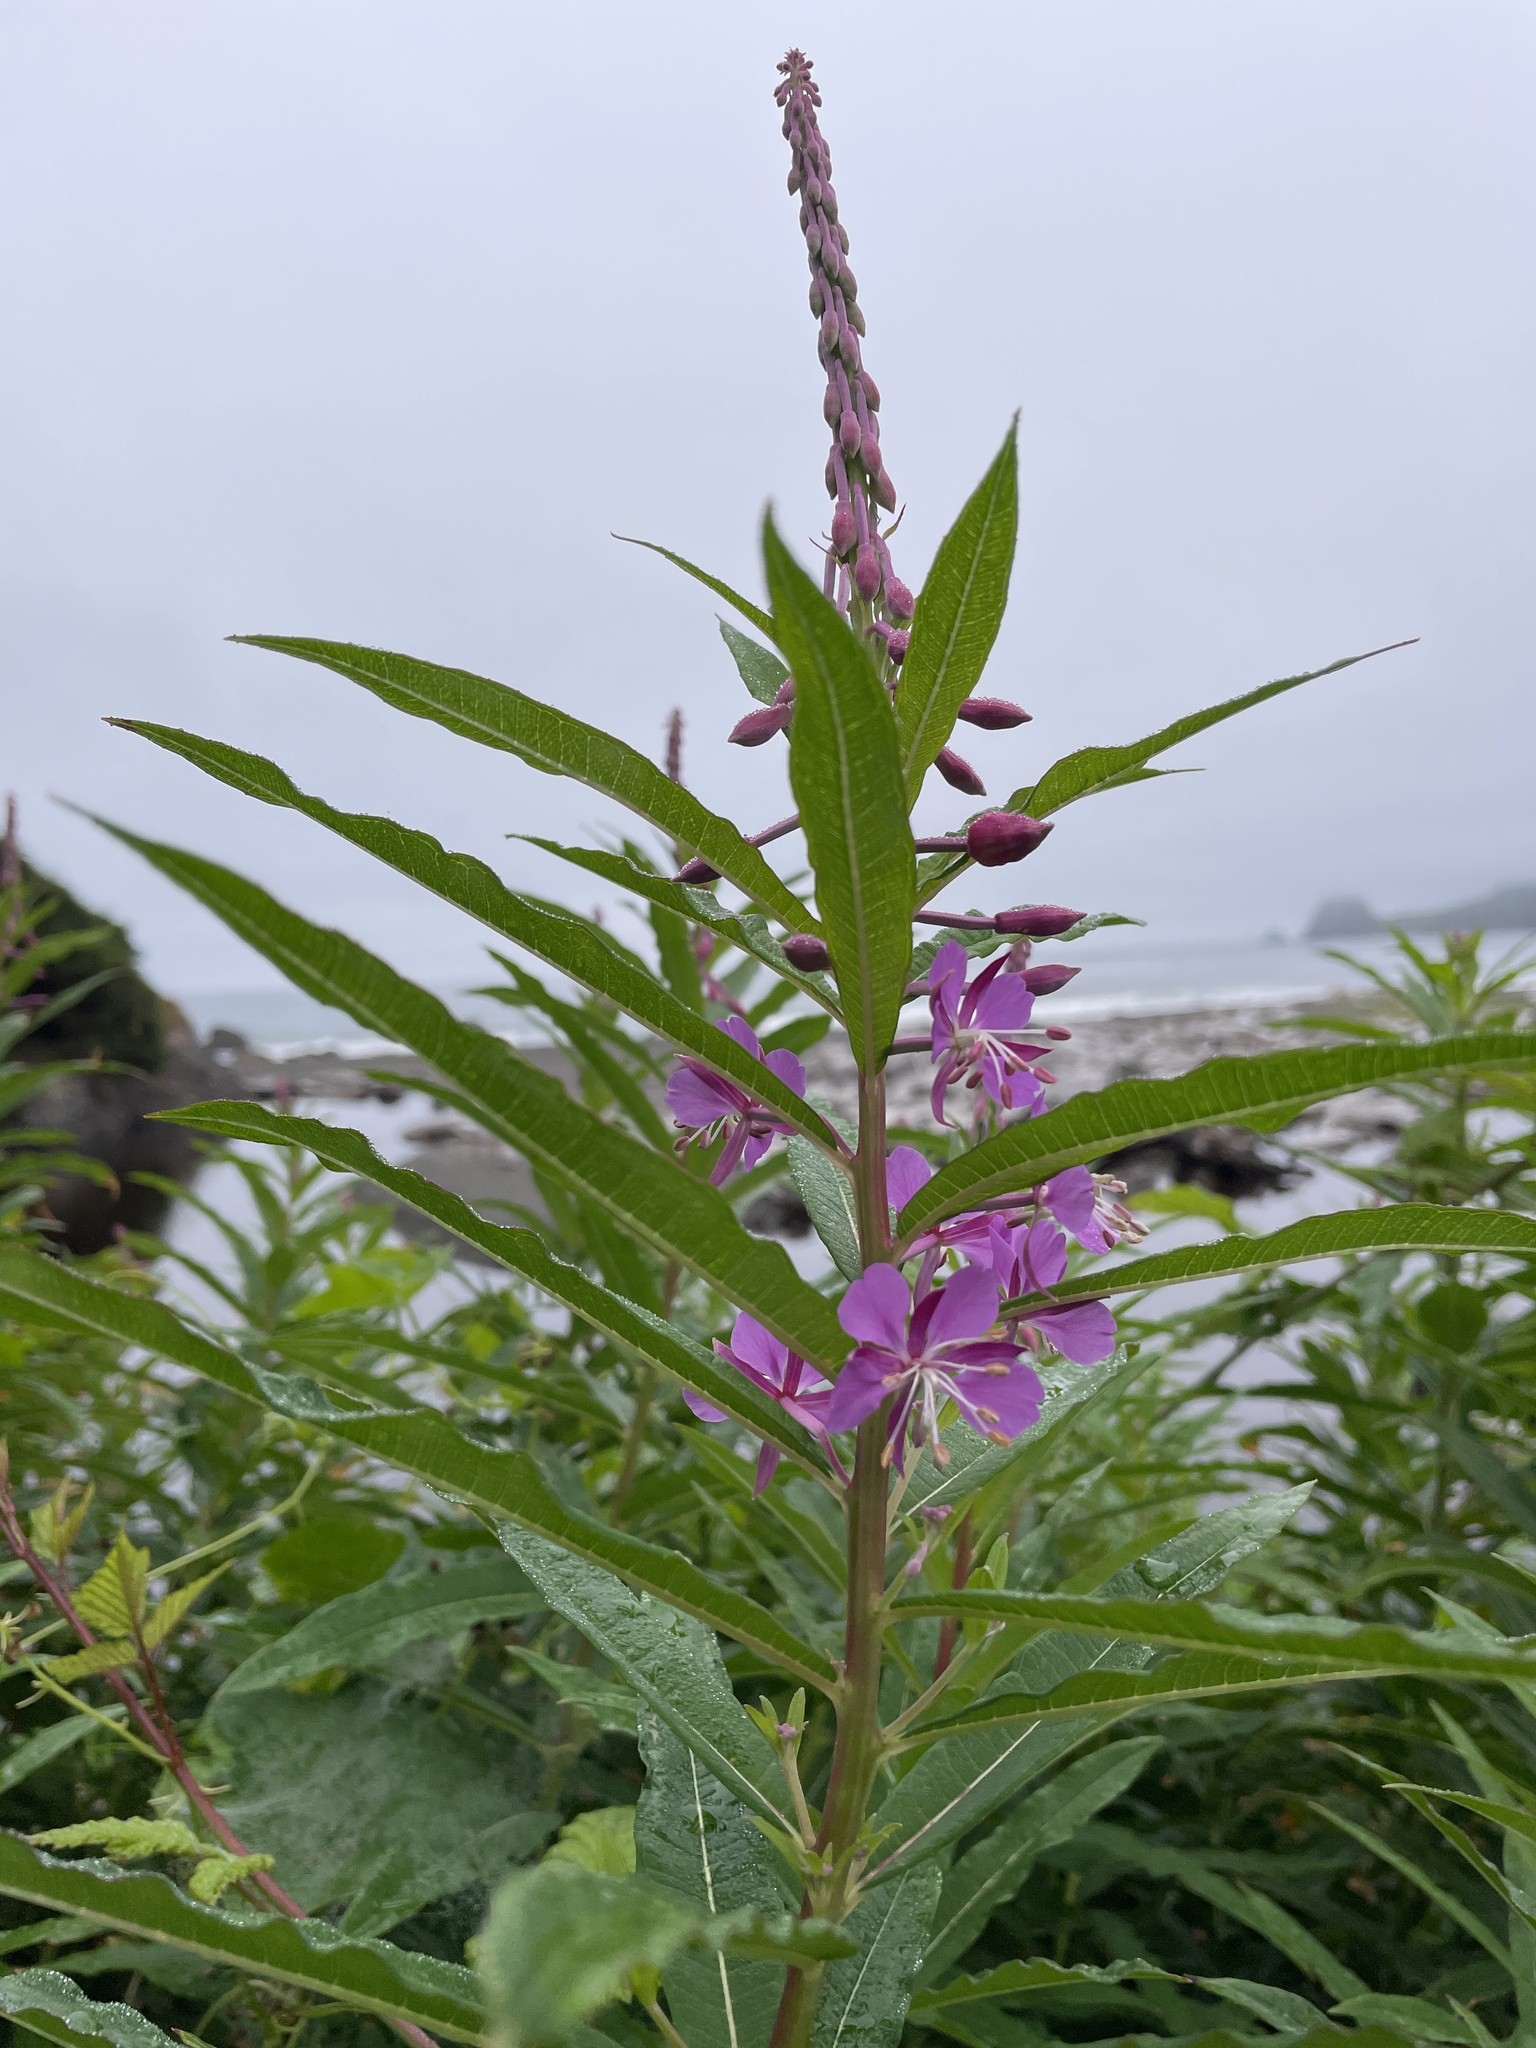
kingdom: Plantae
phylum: Tracheophyta
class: Magnoliopsida
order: Myrtales
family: Onagraceae
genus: Chamaenerion
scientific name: Chamaenerion angustifolium
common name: Fireweed
